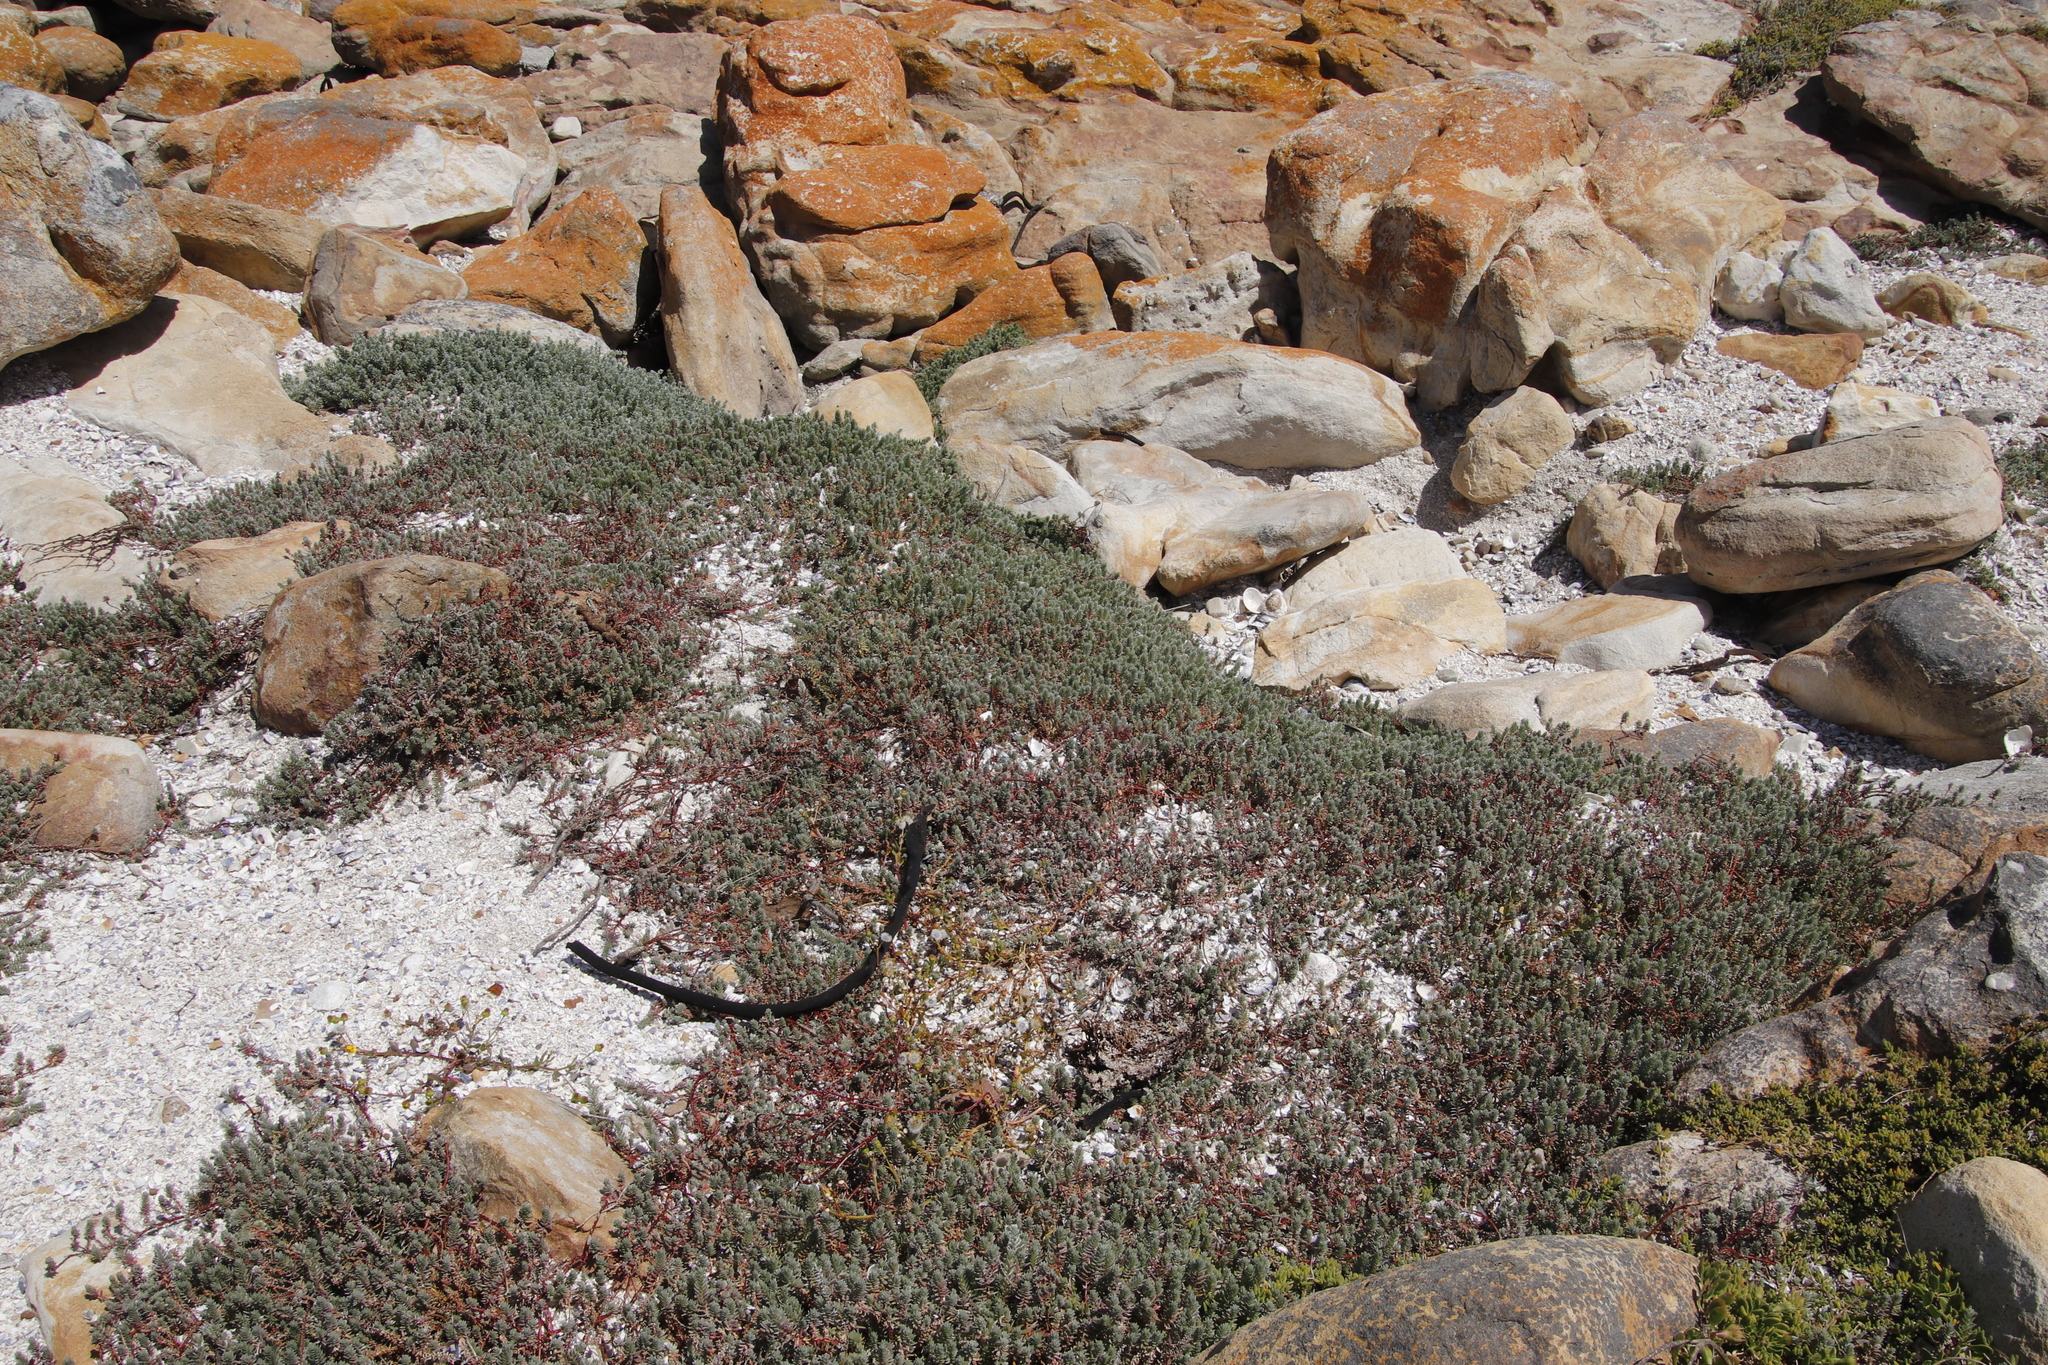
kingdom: Plantae
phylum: Tracheophyta
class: Magnoliopsida
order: Caryophyllales
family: Amaranthaceae
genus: Chenolea
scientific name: Chenolea diffusa
